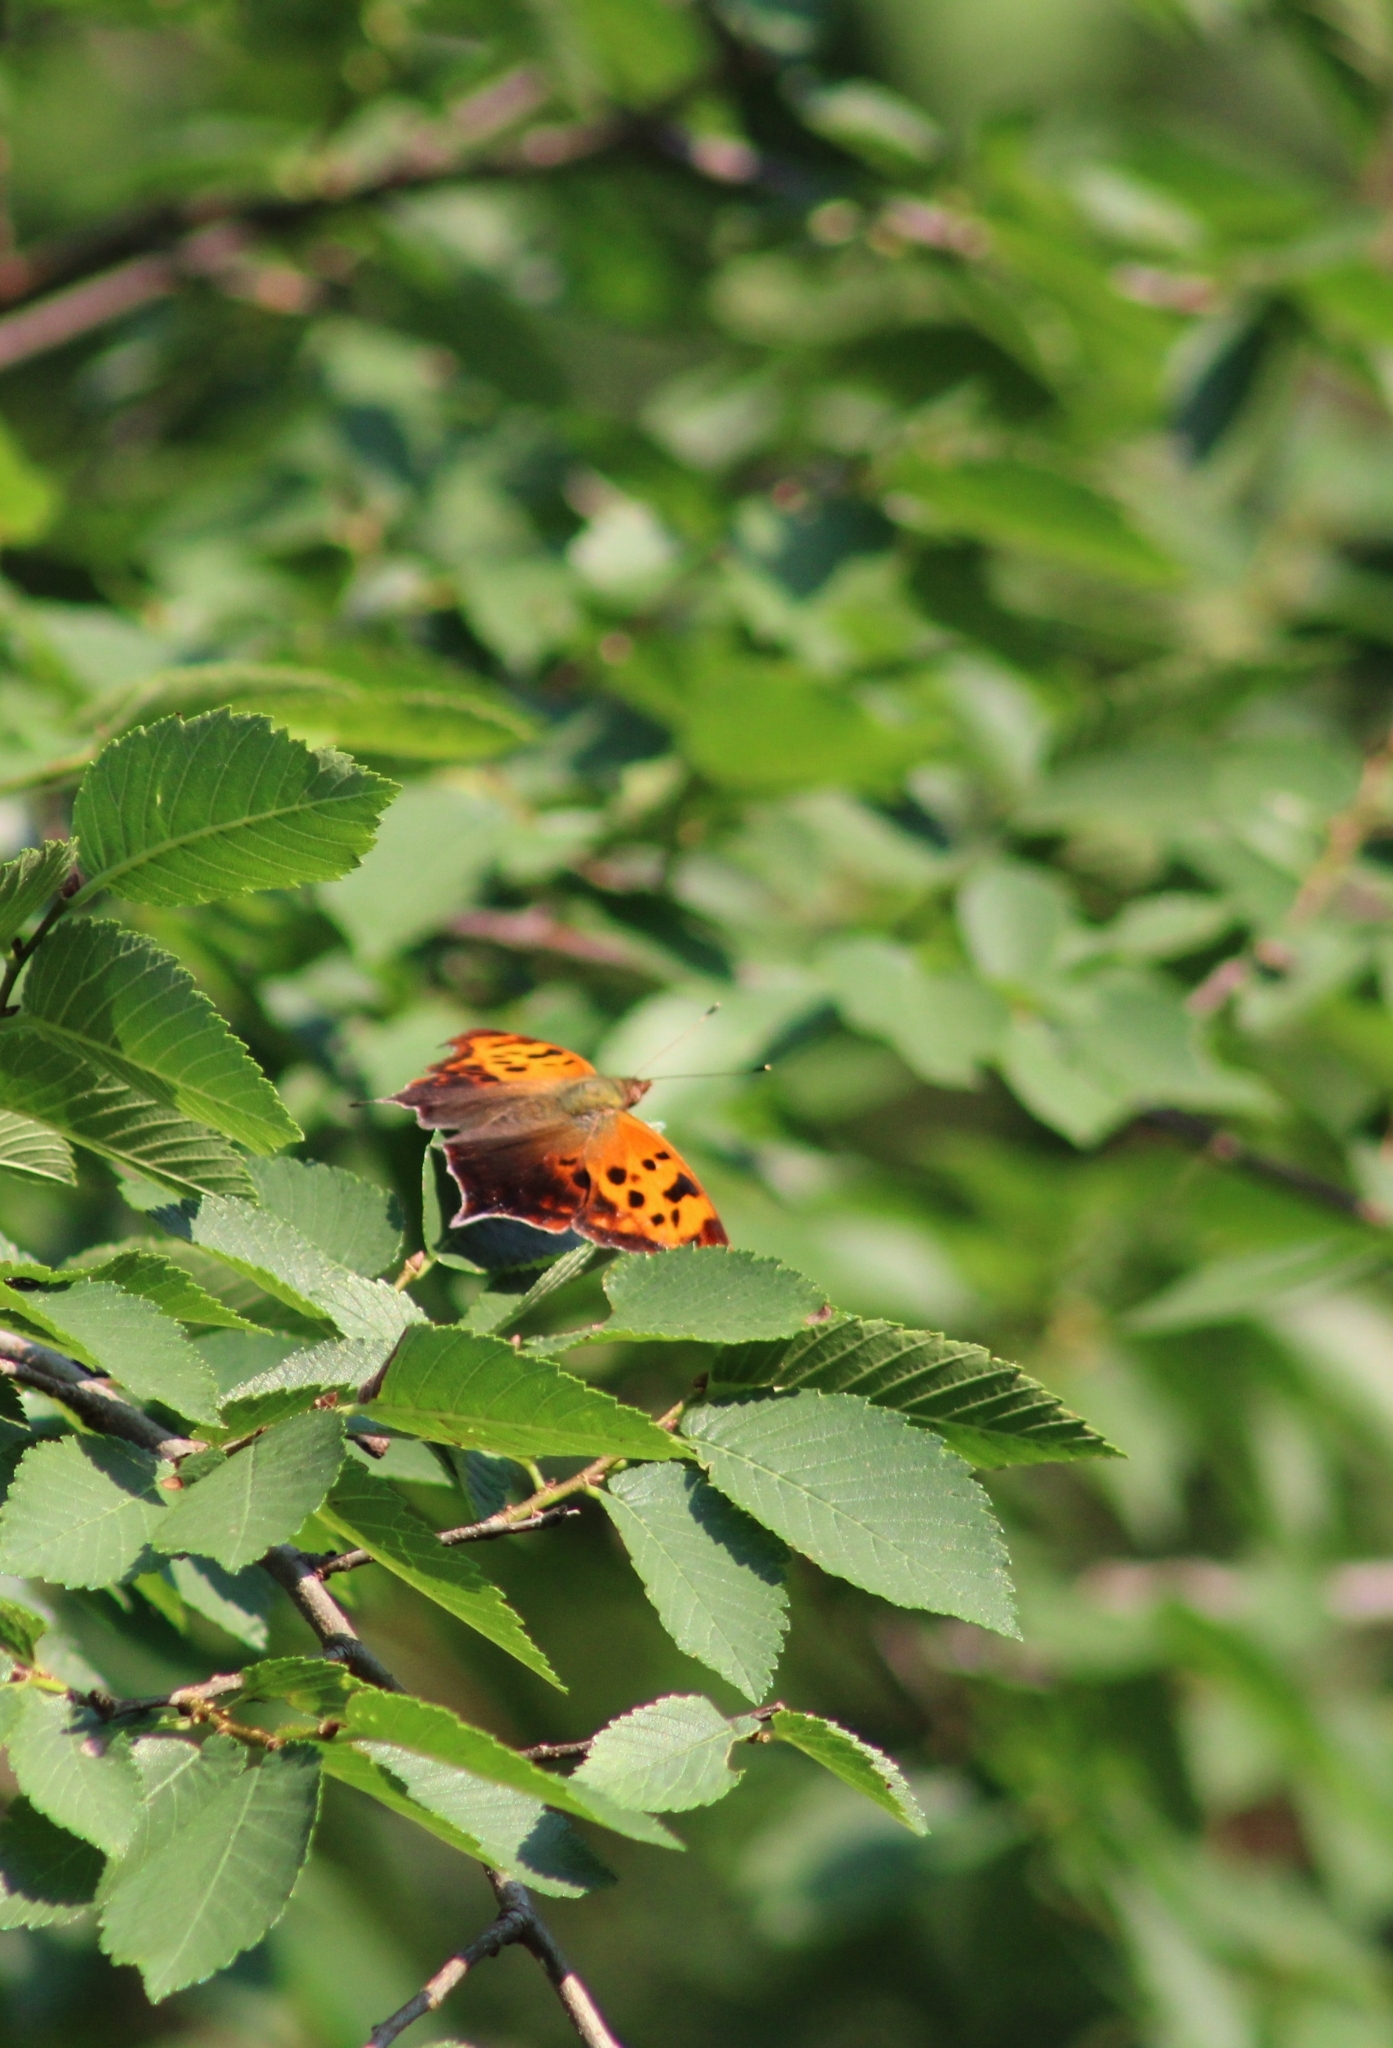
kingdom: Animalia
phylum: Arthropoda
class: Insecta
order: Lepidoptera
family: Nymphalidae
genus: Polygonia
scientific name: Polygonia interrogationis
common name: Question mark
